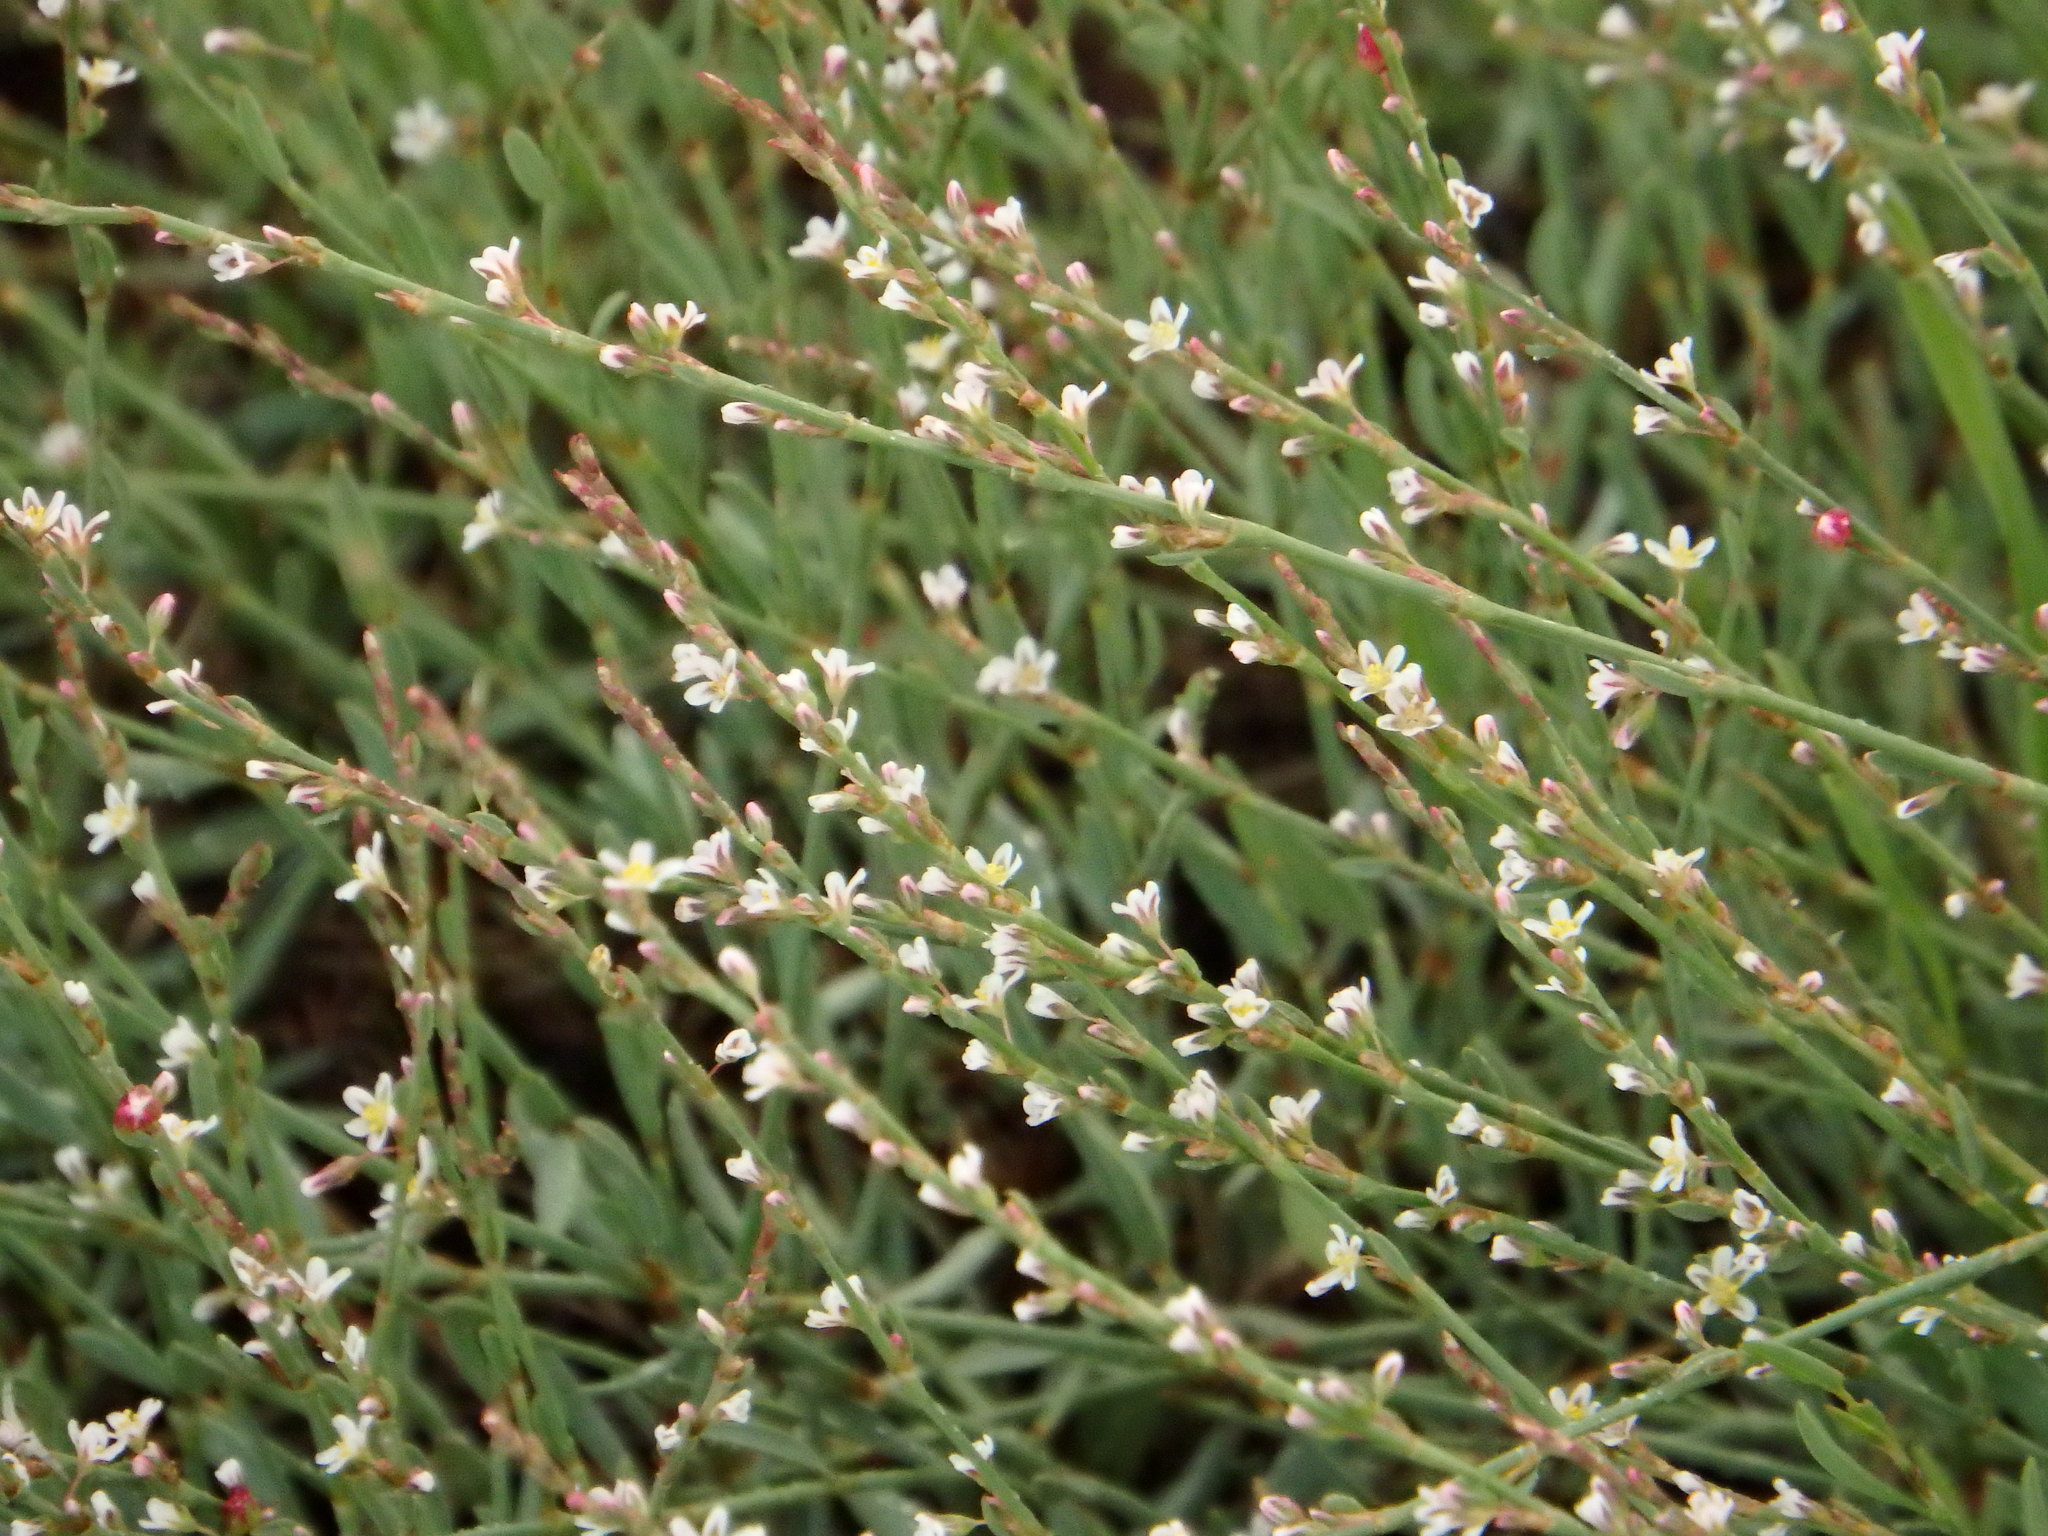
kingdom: Plantae
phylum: Tracheophyta
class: Magnoliopsida
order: Caryophyllales
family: Polygonaceae
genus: Polygonum
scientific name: Polygonum equisetiforme
